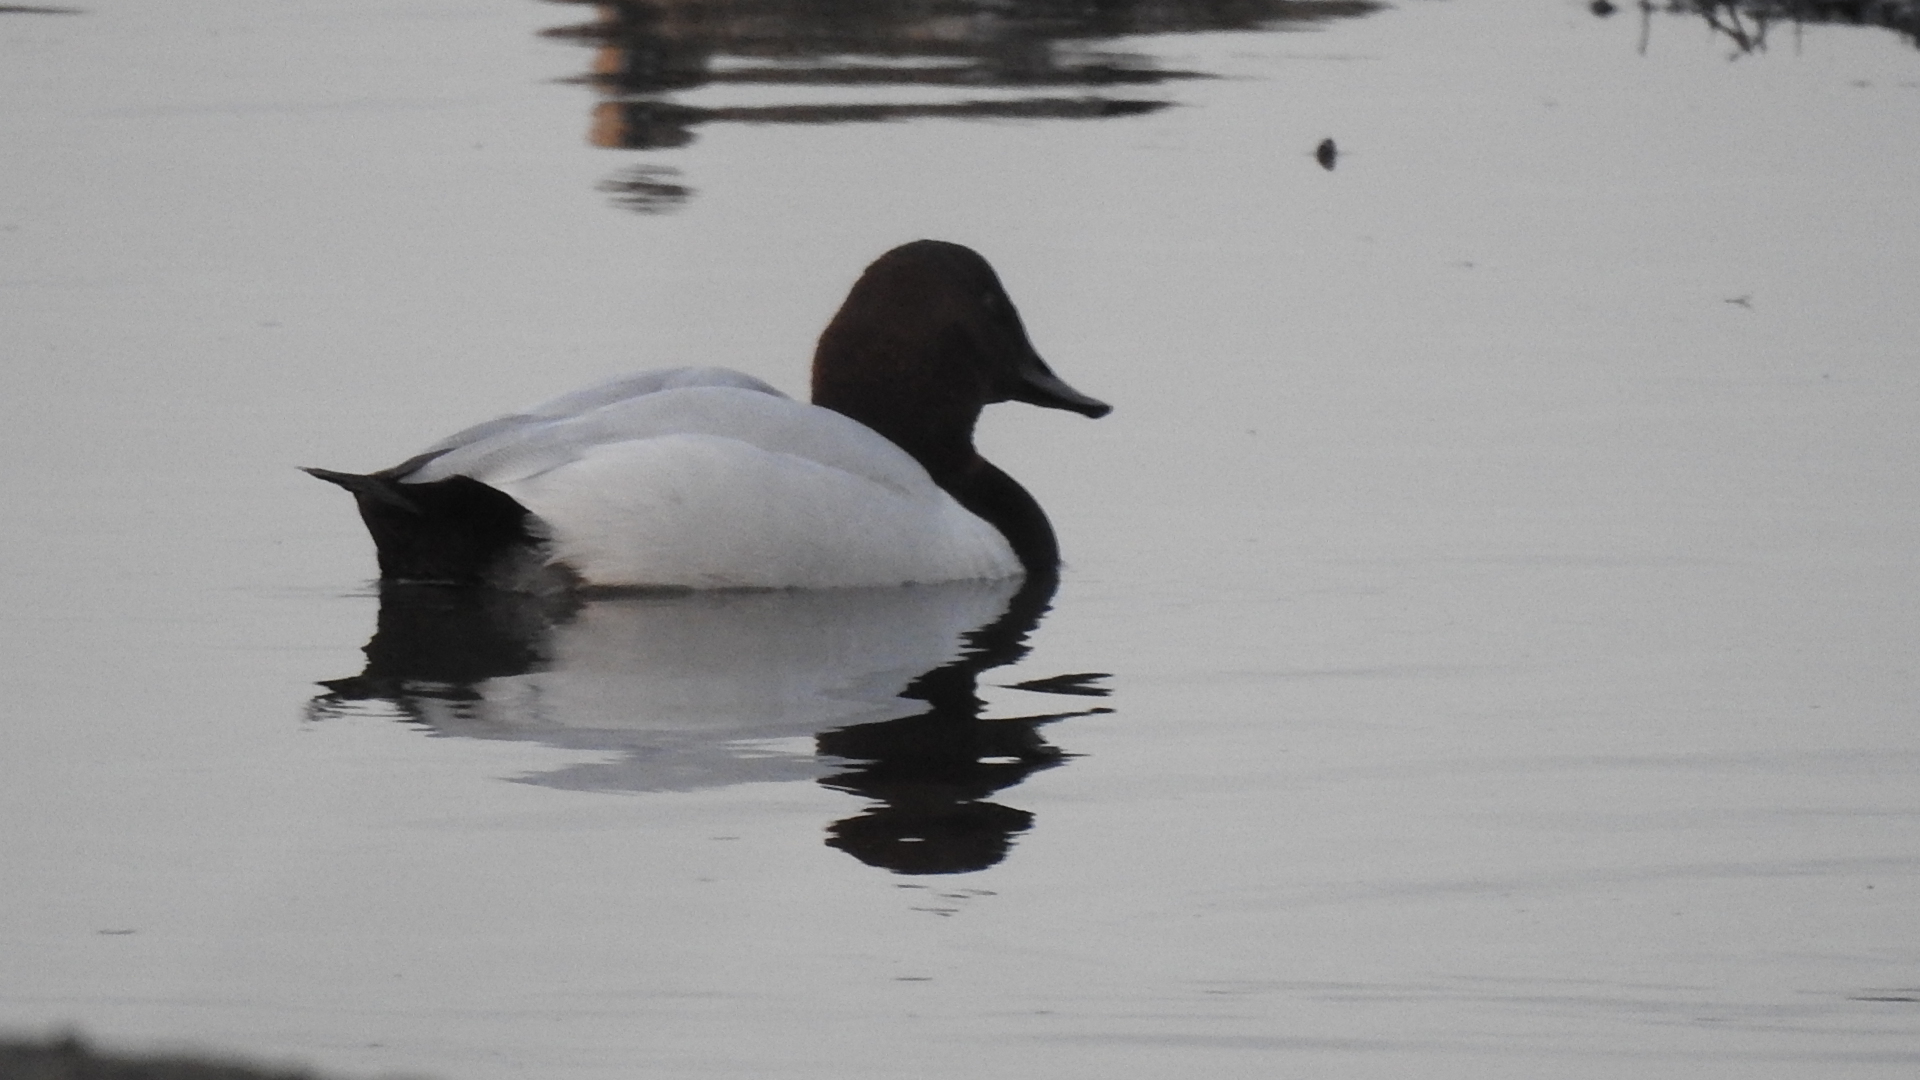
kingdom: Animalia
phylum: Chordata
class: Aves
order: Anseriformes
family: Anatidae
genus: Aythya
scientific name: Aythya valisineria
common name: Canvasback
